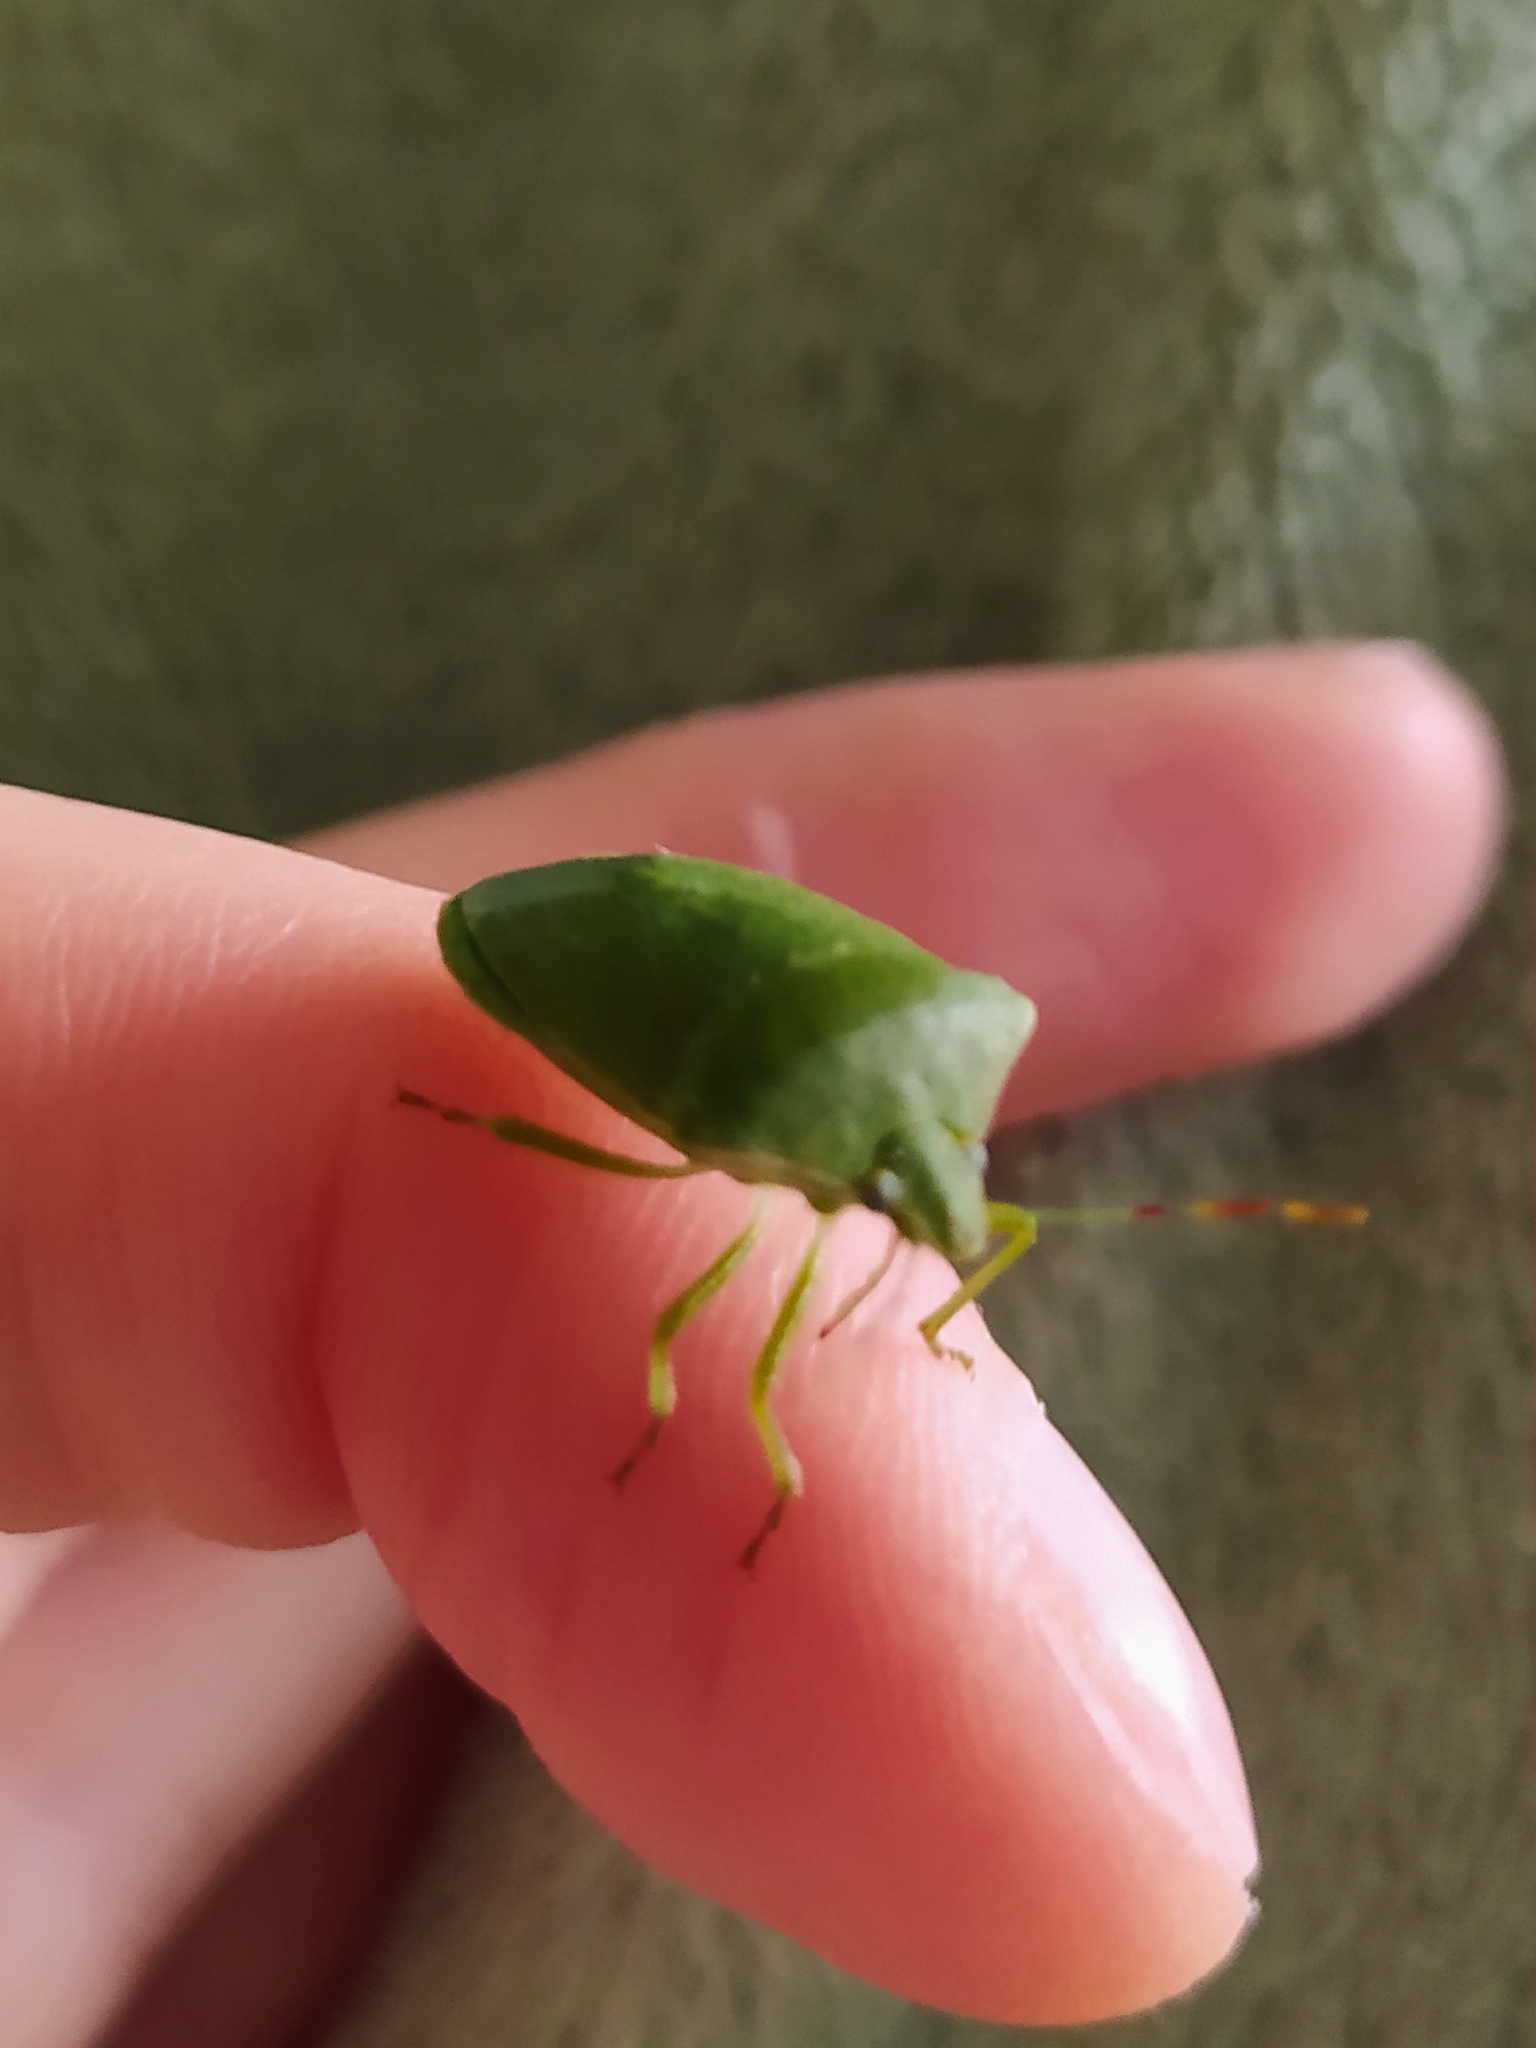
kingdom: Animalia
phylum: Arthropoda
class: Insecta
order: Hemiptera
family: Pentatomidae
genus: Nezara
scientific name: Nezara viridula
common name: Southern green stink bug
